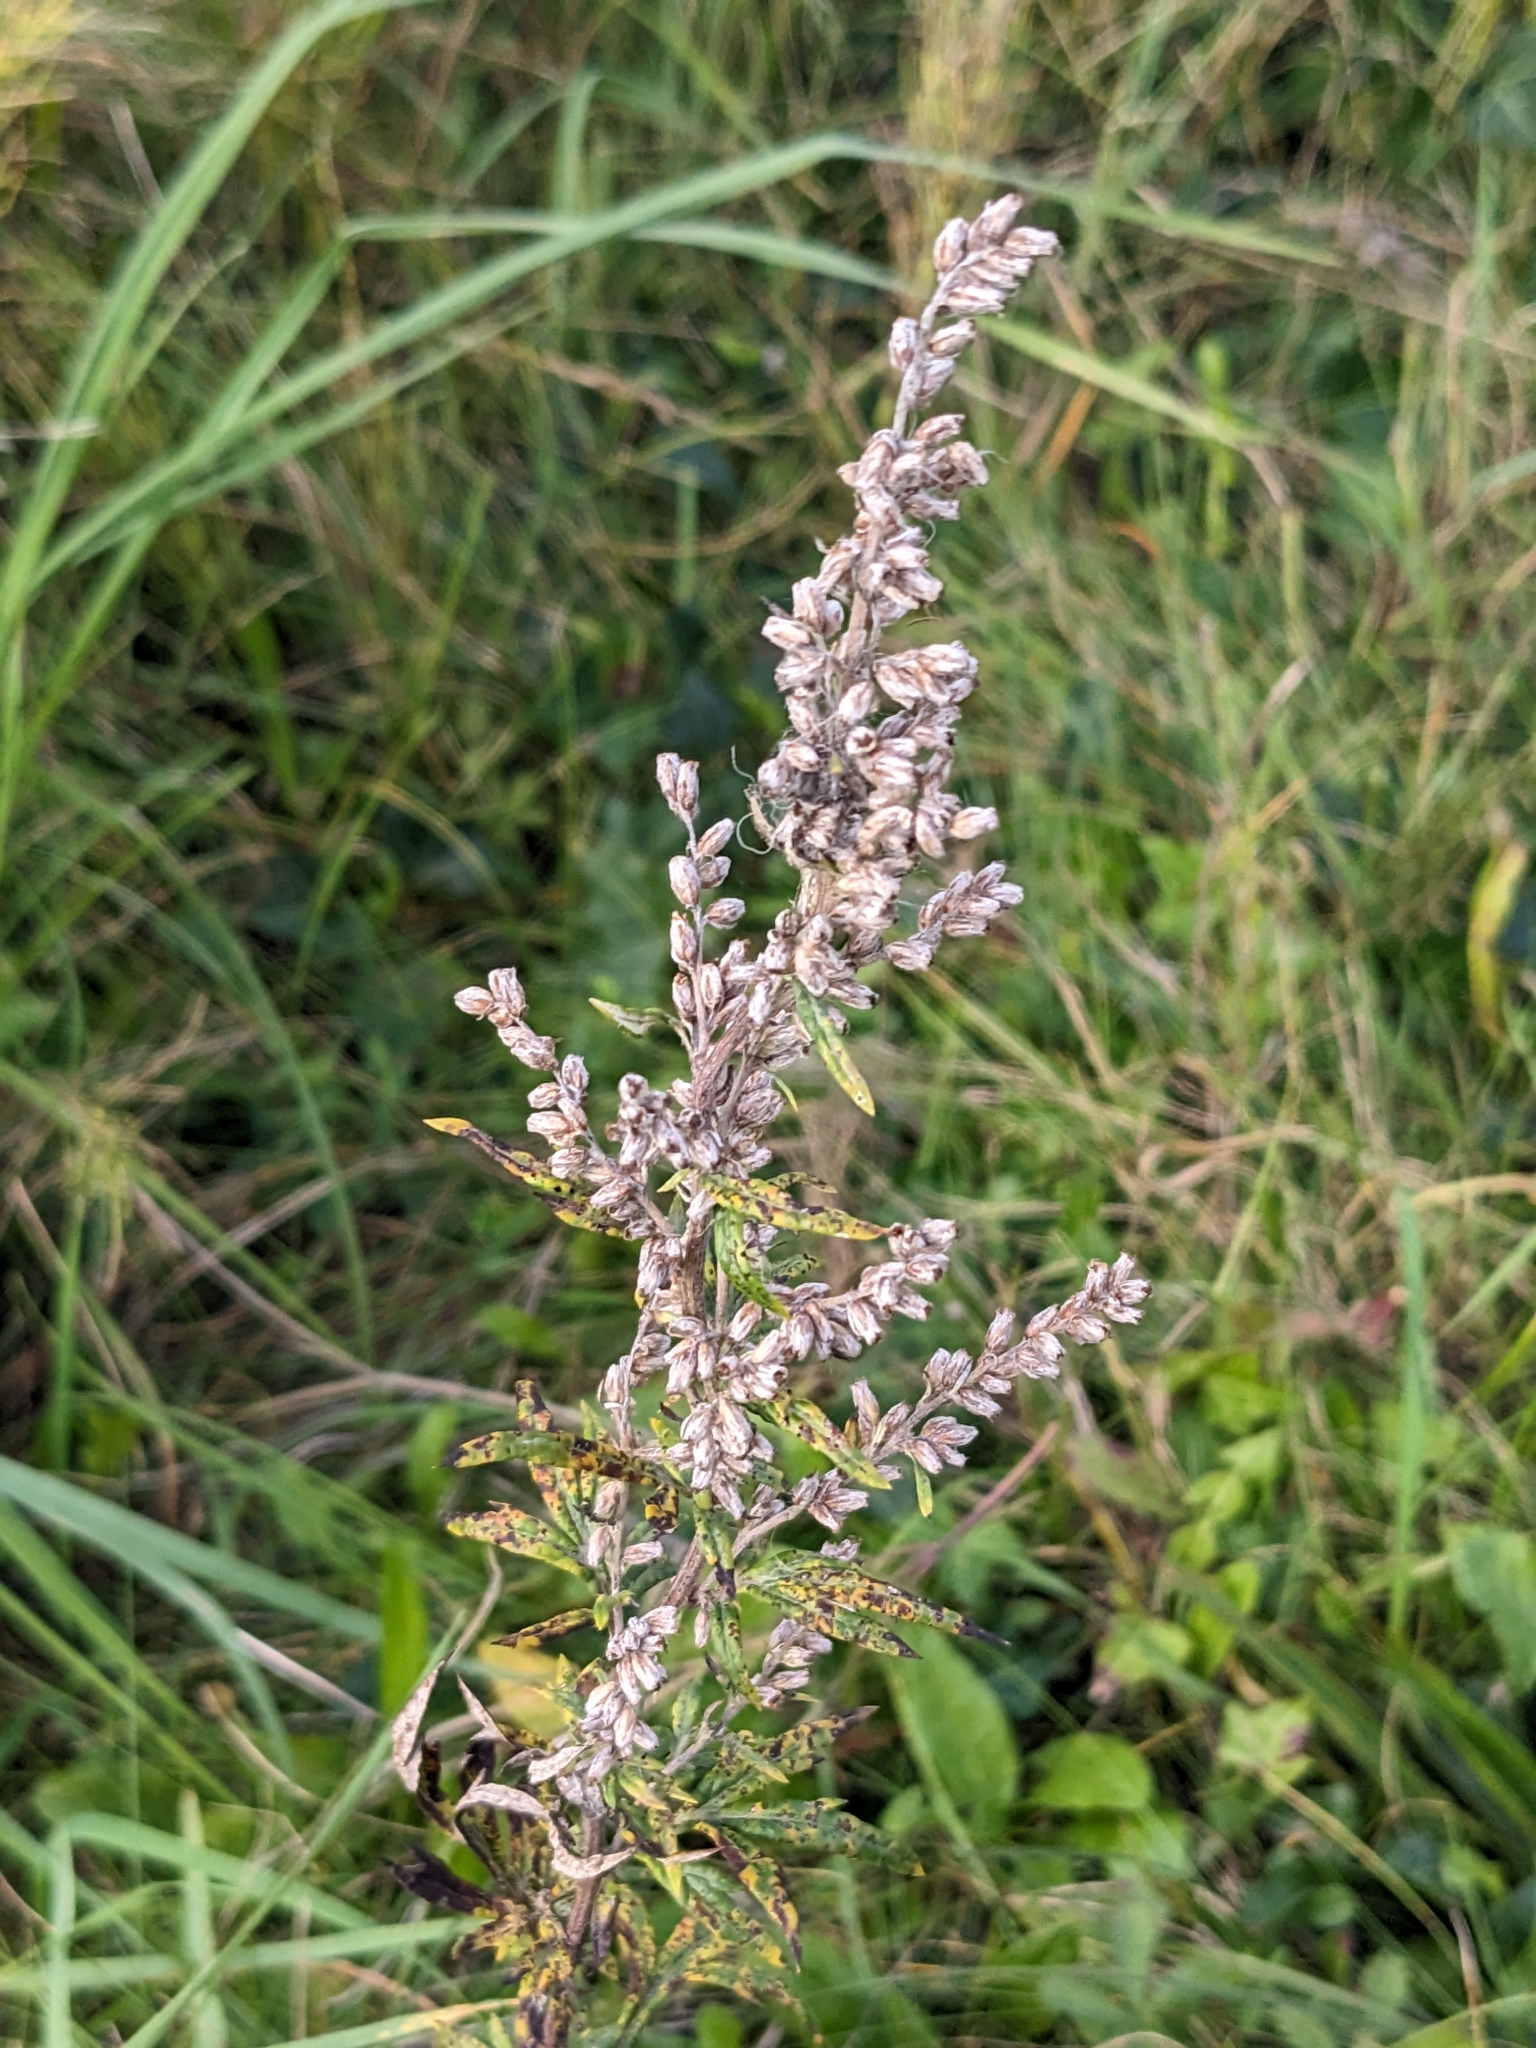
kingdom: Plantae
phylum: Tracheophyta
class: Magnoliopsida
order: Asterales
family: Asteraceae
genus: Artemisia
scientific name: Artemisia vulgaris
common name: Mugwort
